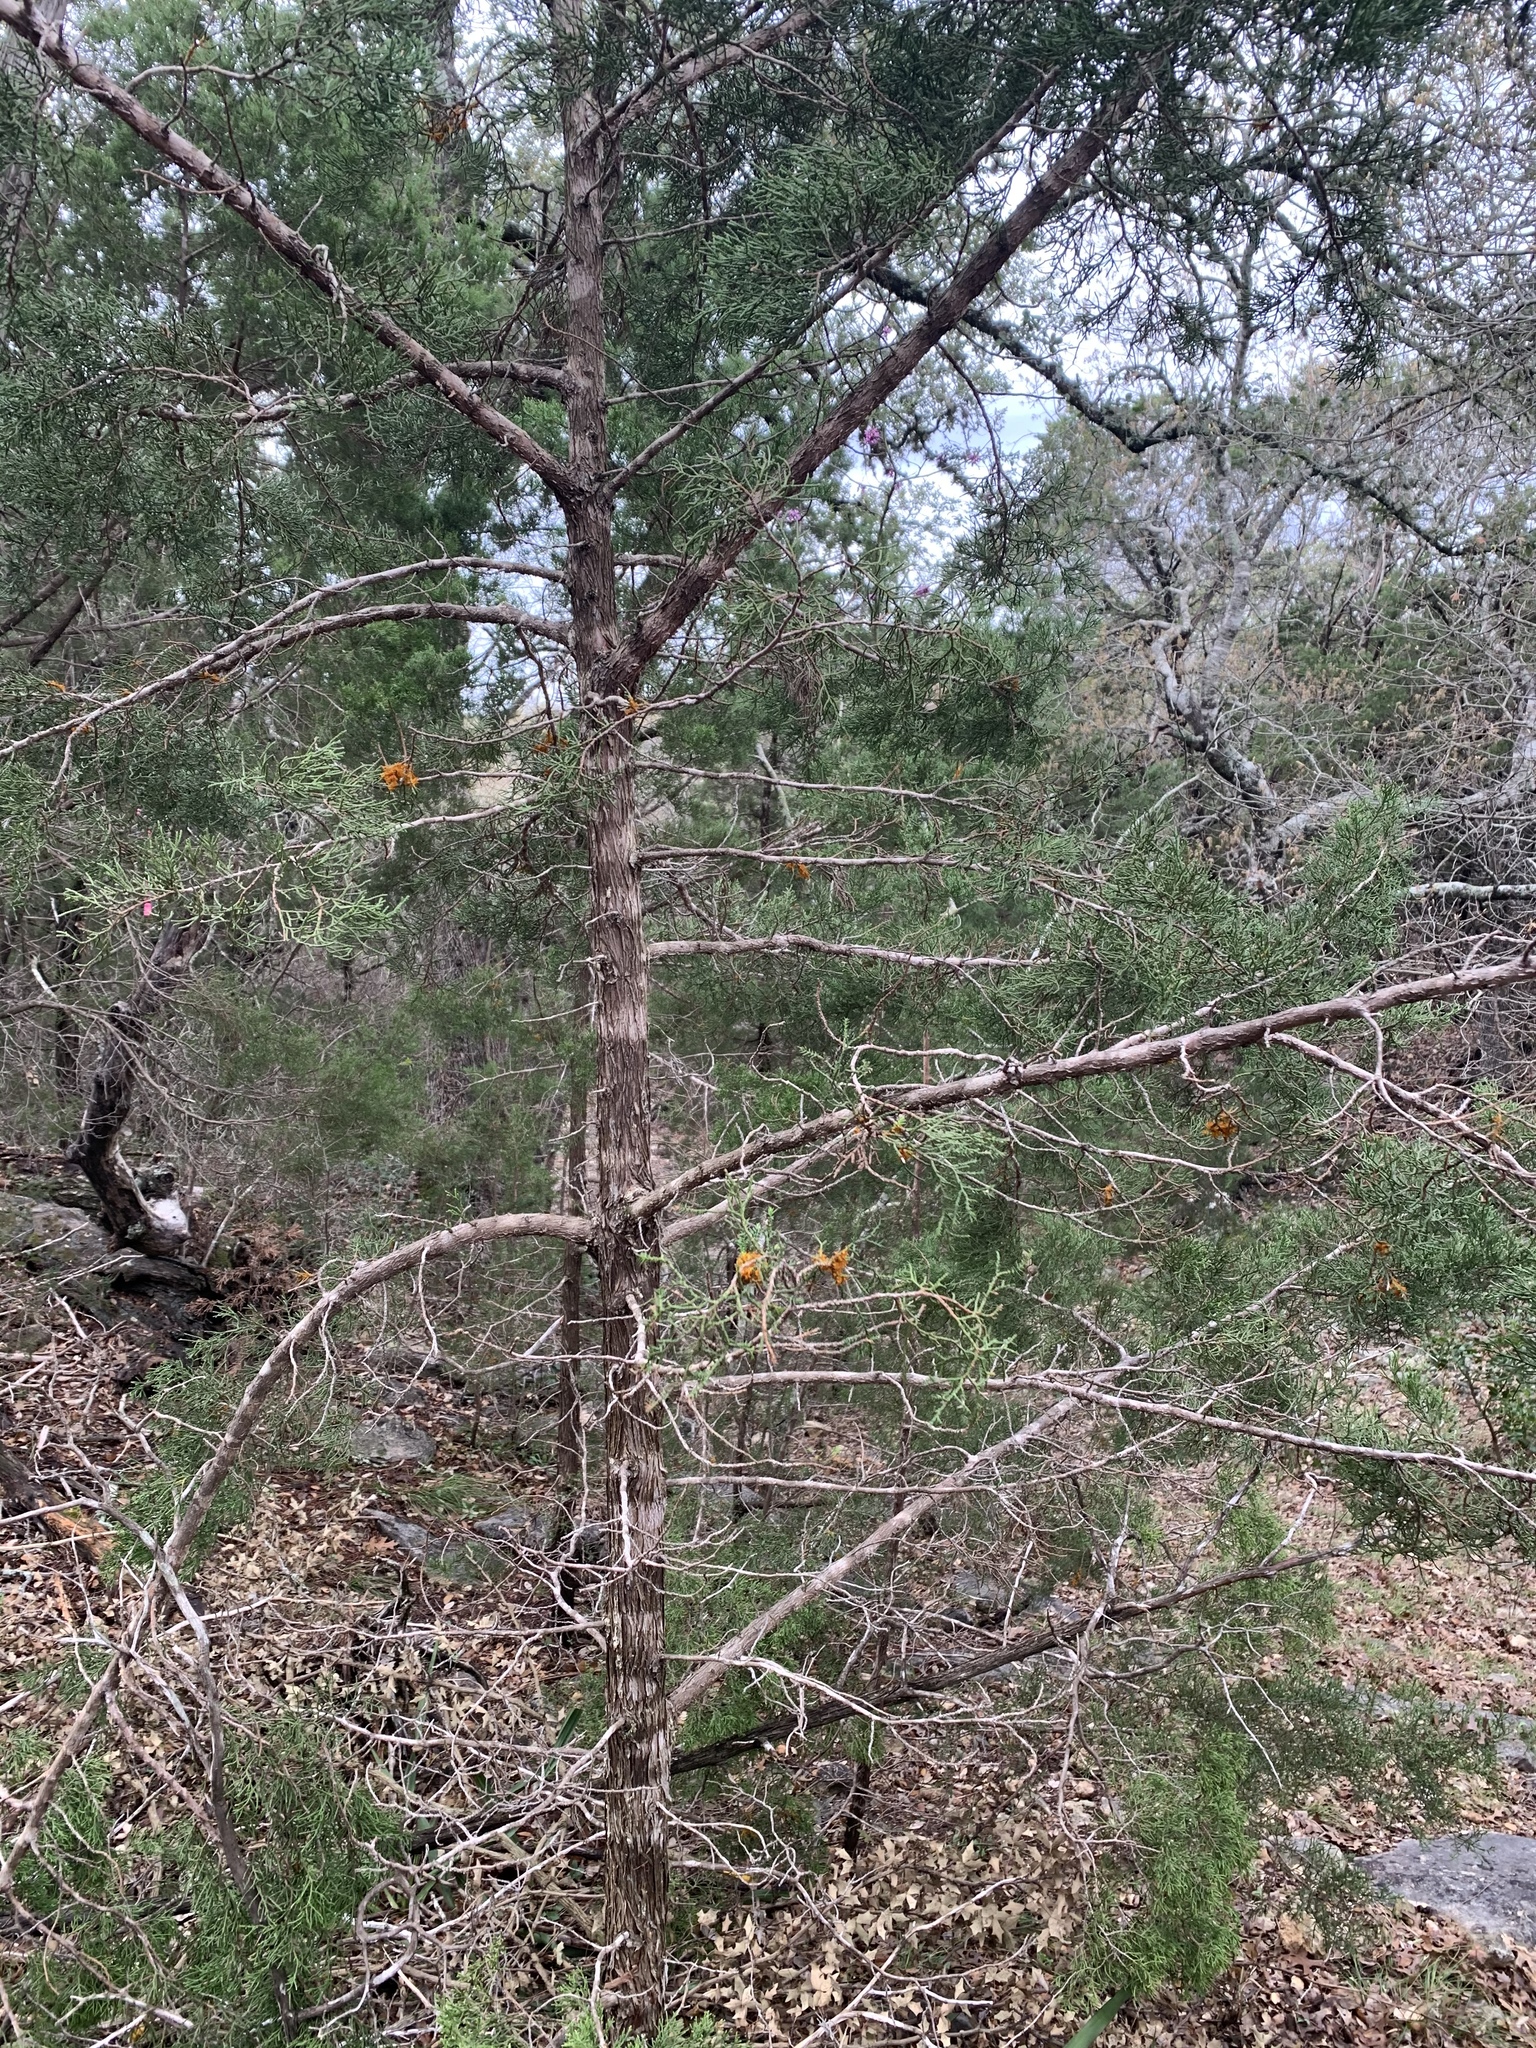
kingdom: Fungi
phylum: Basidiomycota
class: Pucciniomycetes
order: Pucciniales
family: Gymnosporangiaceae
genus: Gymnosporangium
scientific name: Gymnosporangium juniperi-virginianae
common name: Juniper-apple rust
